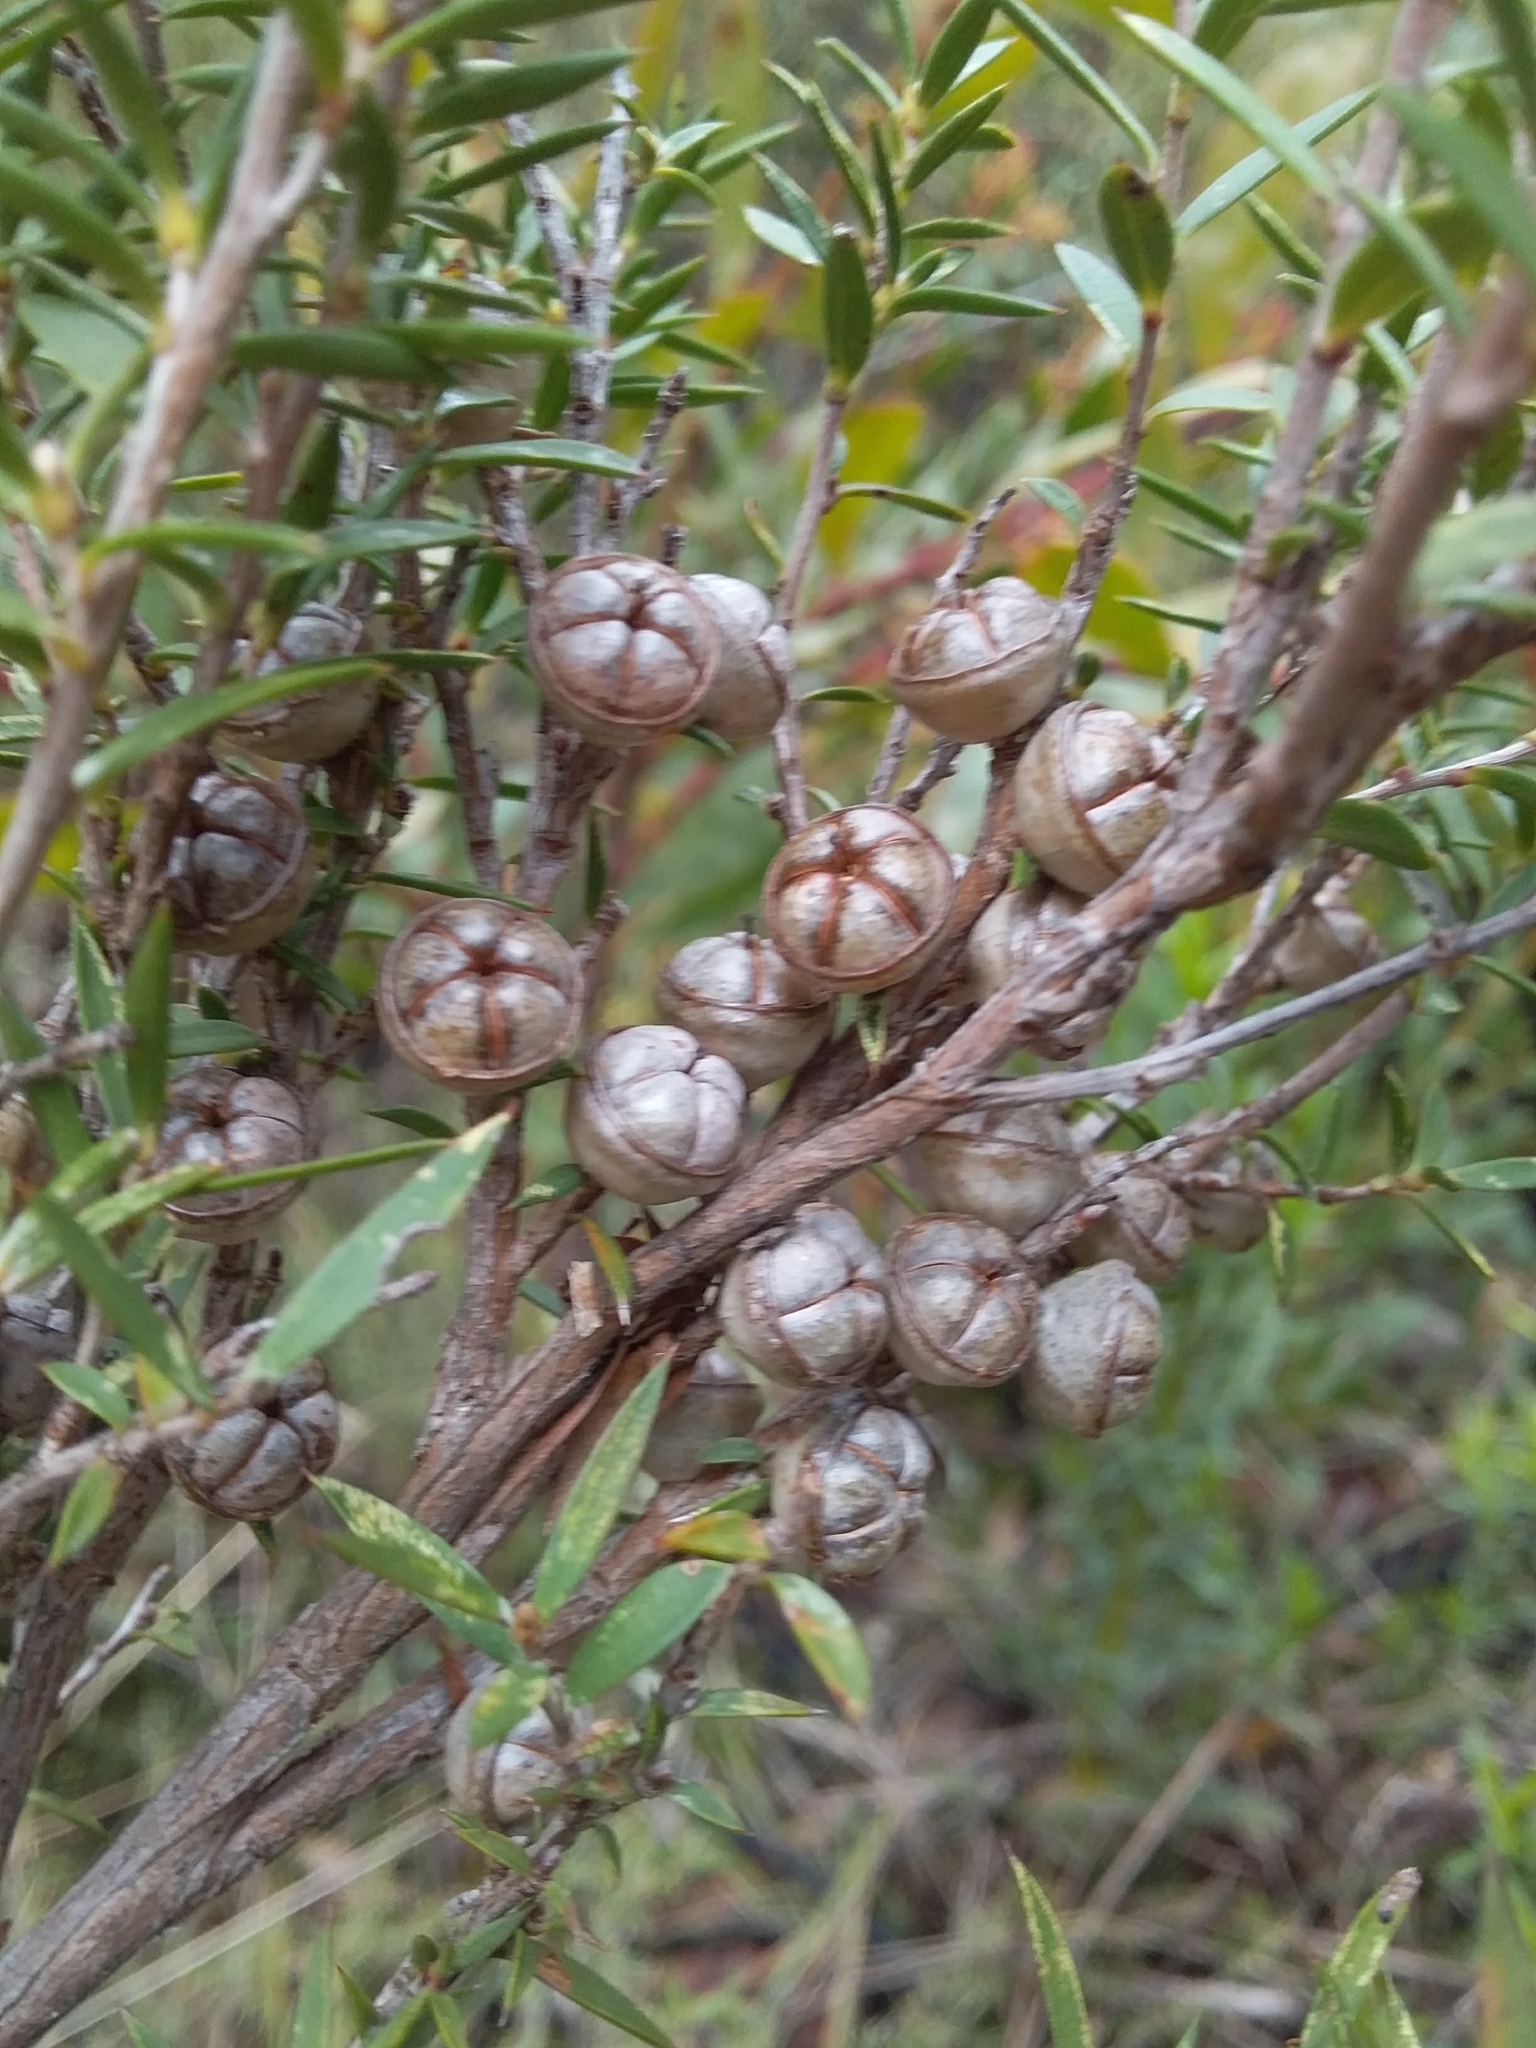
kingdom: Plantae
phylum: Tracheophyta
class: Magnoliopsida
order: Myrtales
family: Myrtaceae
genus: Leptospermum
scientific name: Leptospermum continentale
